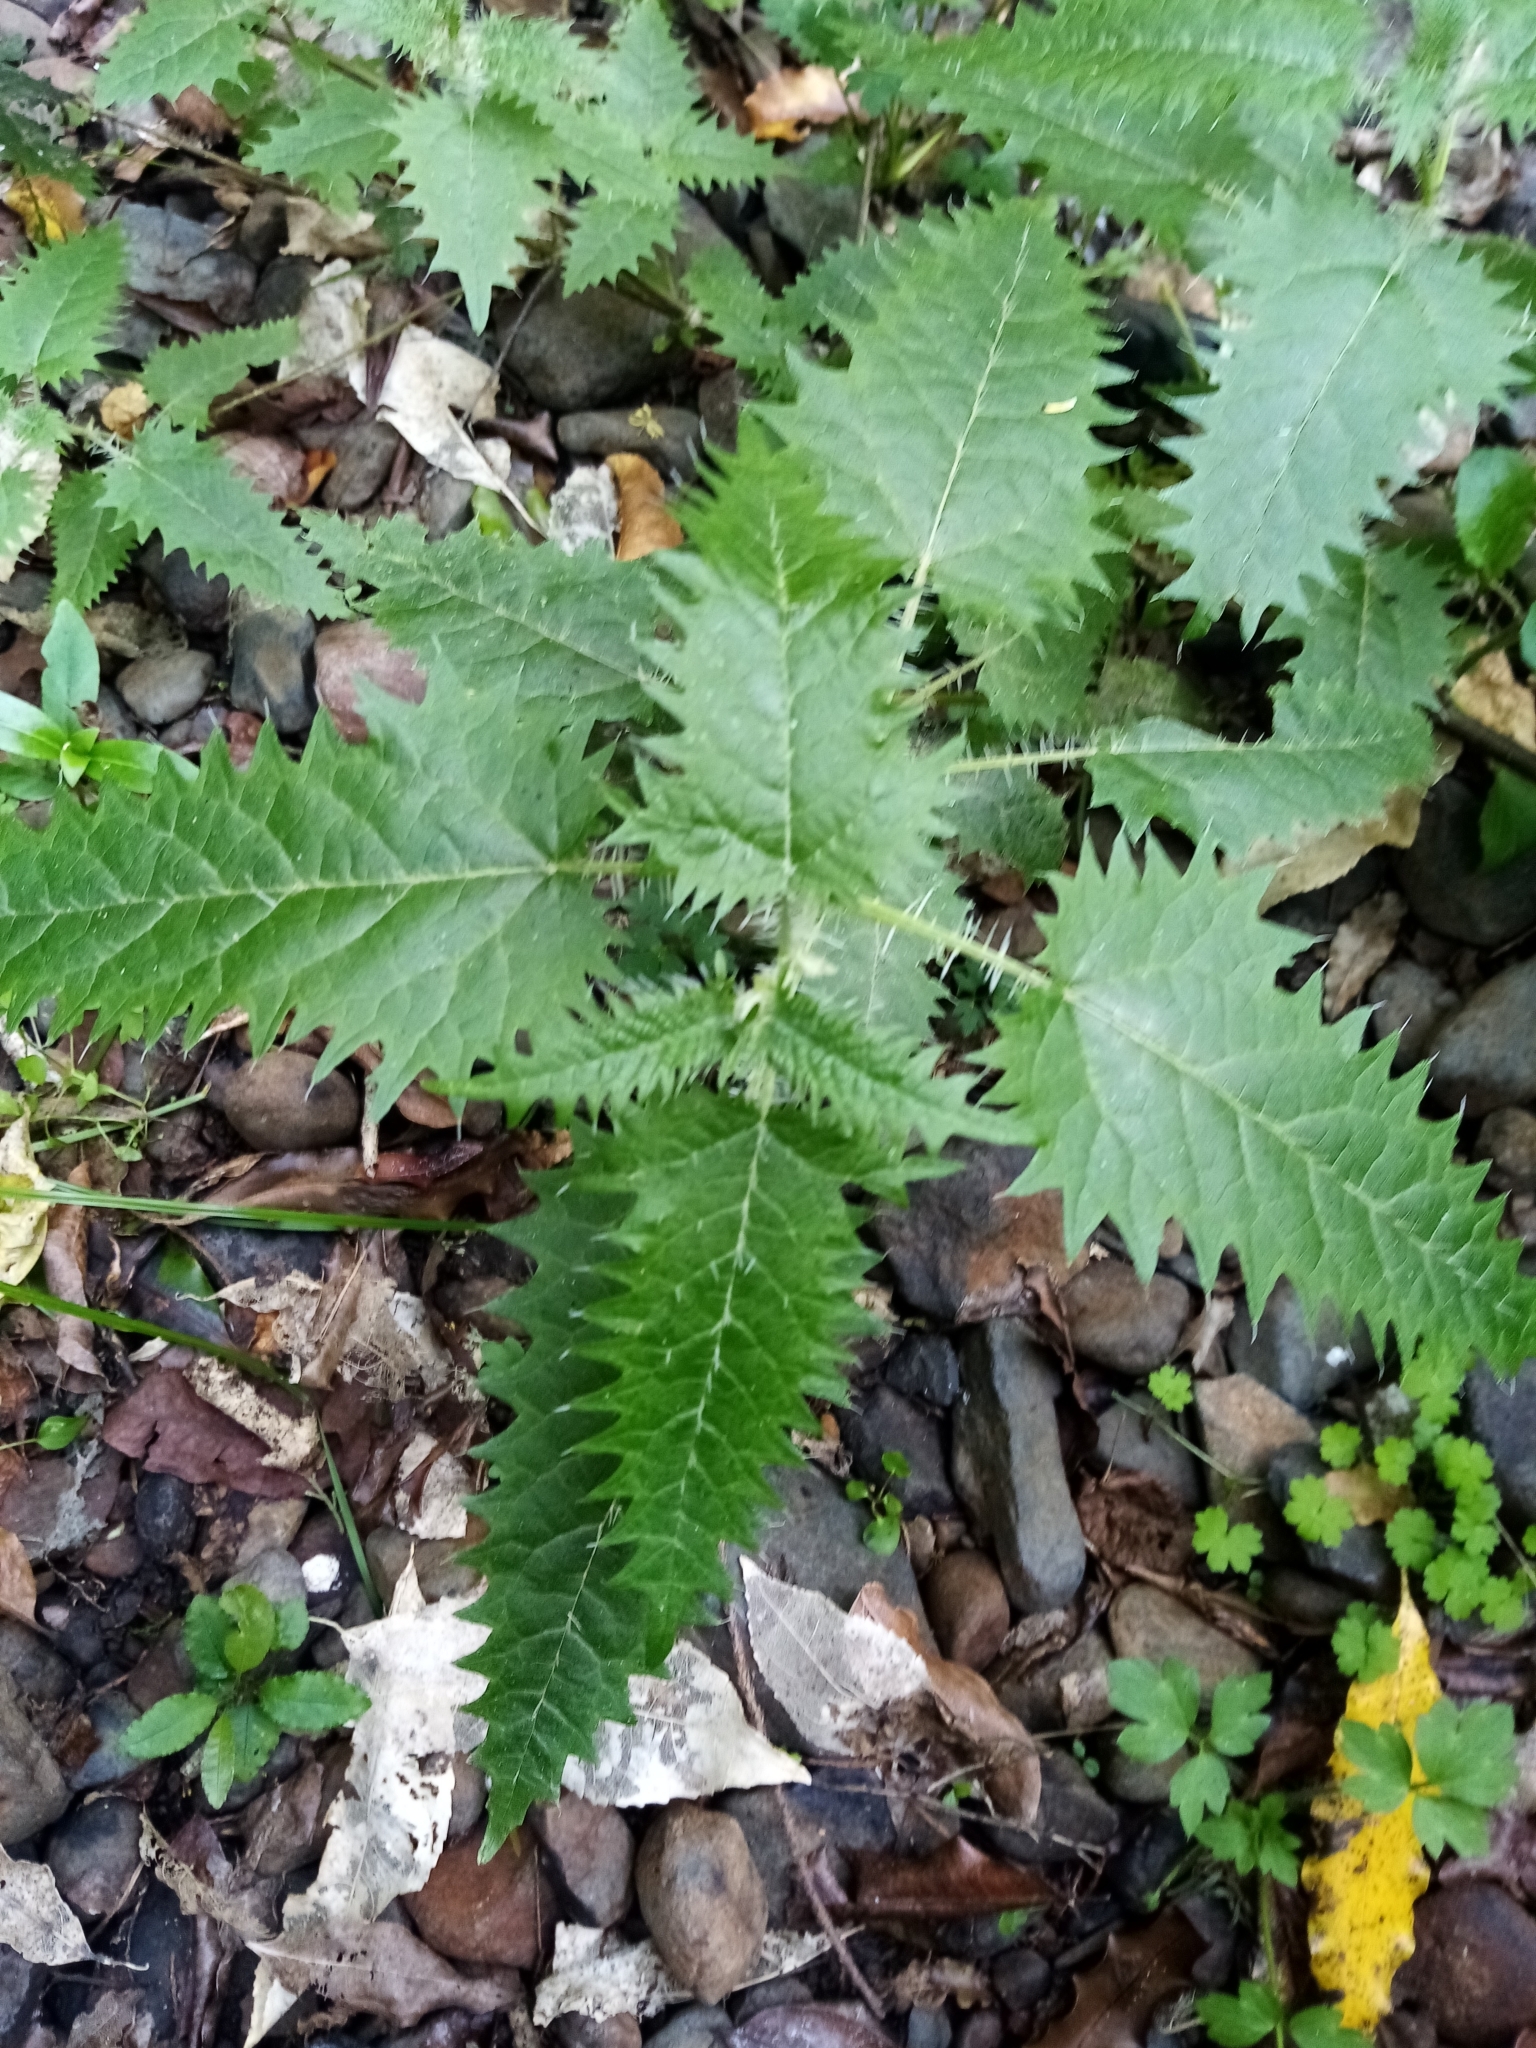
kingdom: Plantae
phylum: Tracheophyta
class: Magnoliopsida
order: Rosales
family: Urticaceae
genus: Urtica
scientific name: Urtica ferox
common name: Tree nettle
